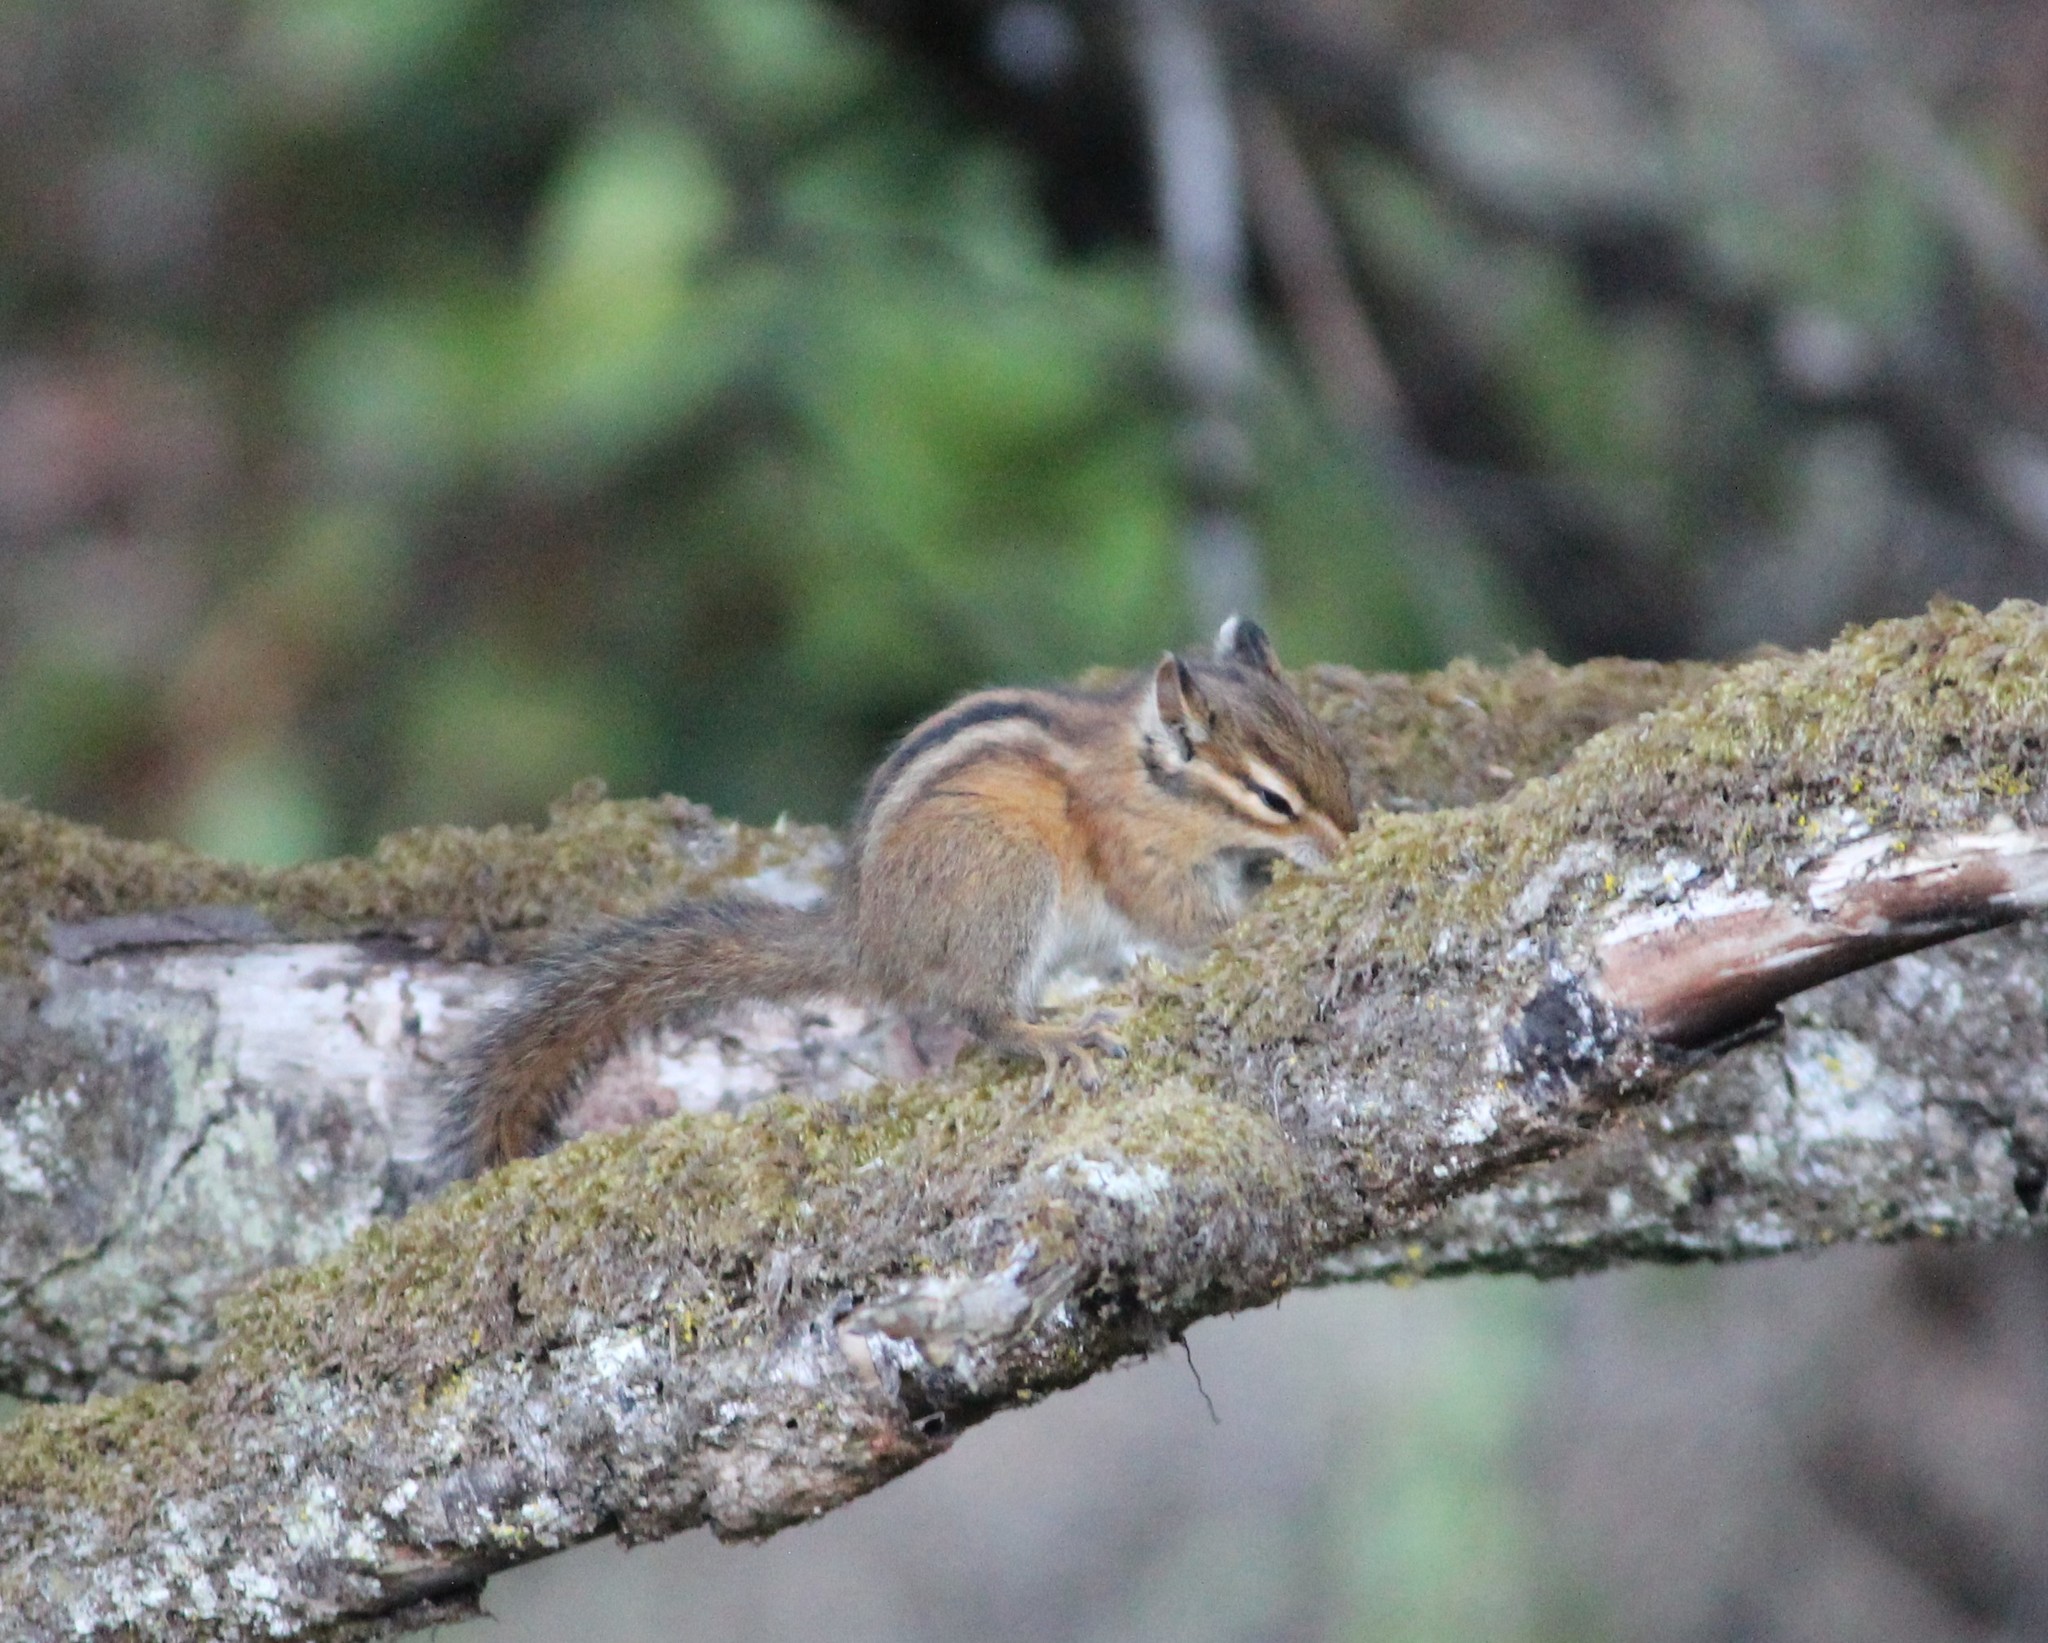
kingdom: Animalia
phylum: Chordata
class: Mammalia
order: Rodentia
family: Sciuridae
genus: Tamias
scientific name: Tamias townsendii
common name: Townsend's chipmunk
